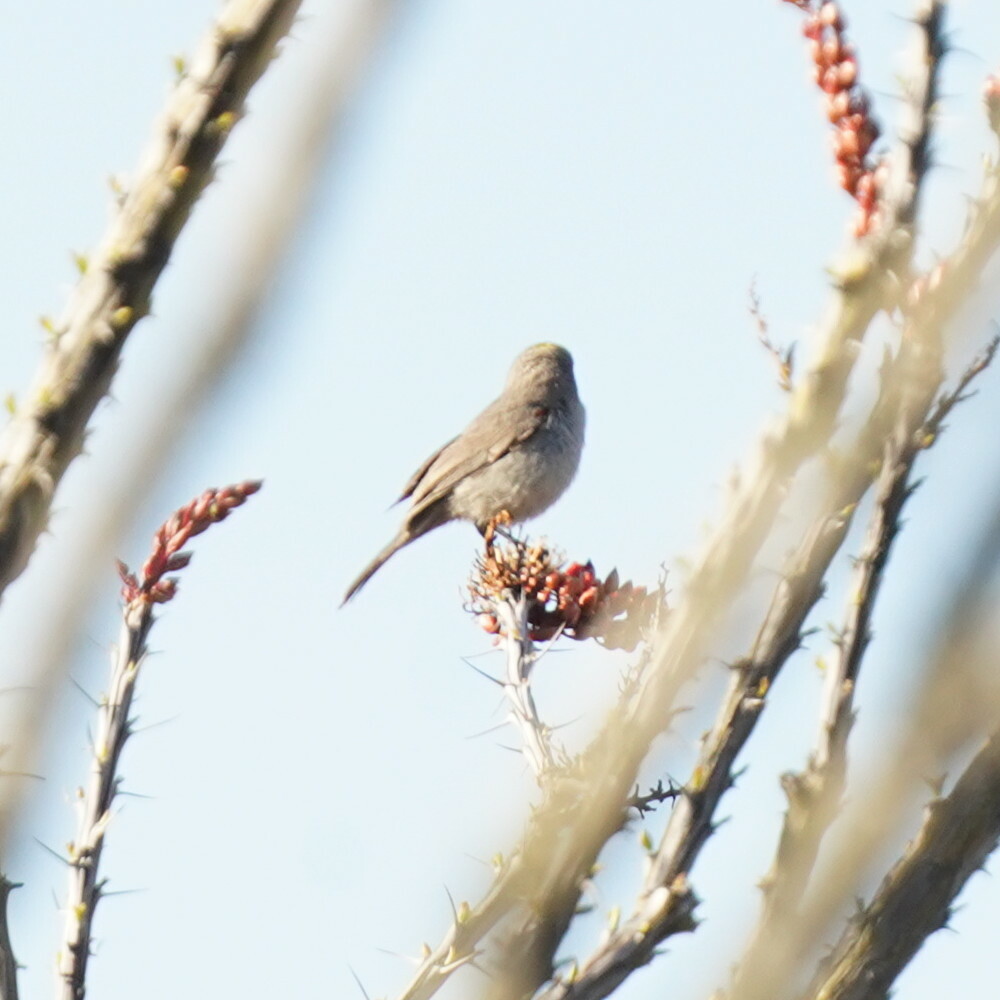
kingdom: Animalia
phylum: Chordata
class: Aves
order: Passeriformes
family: Remizidae
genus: Auriparus
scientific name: Auriparus flaviceps
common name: Verdin
